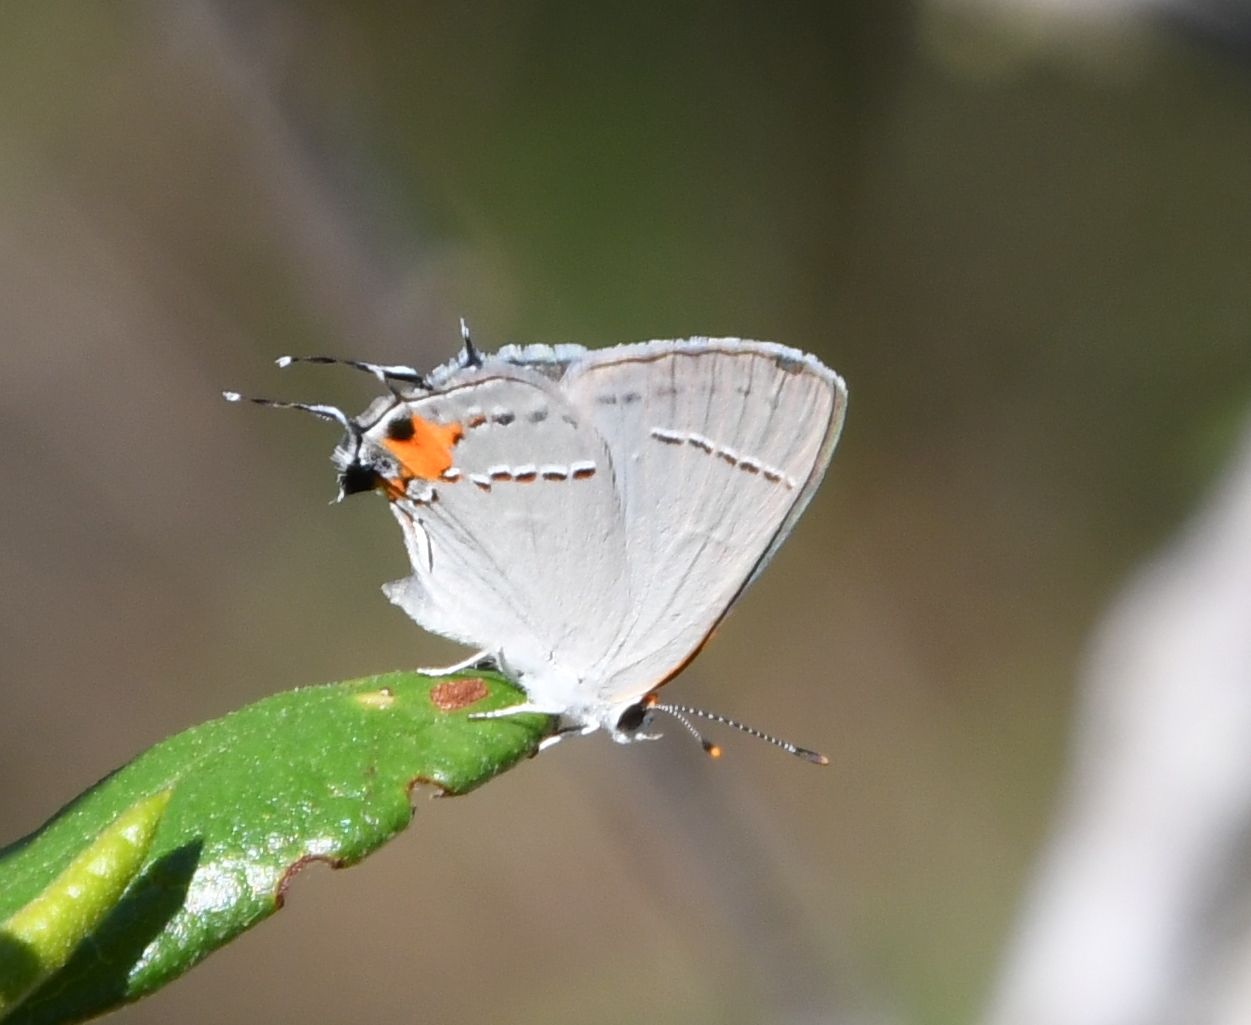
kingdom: Animalia
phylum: Arthropoda
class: Insecta
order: Lepidoptera
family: Lycaenidae
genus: Strymon
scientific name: Strymon melinus
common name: Gray hairstreak
